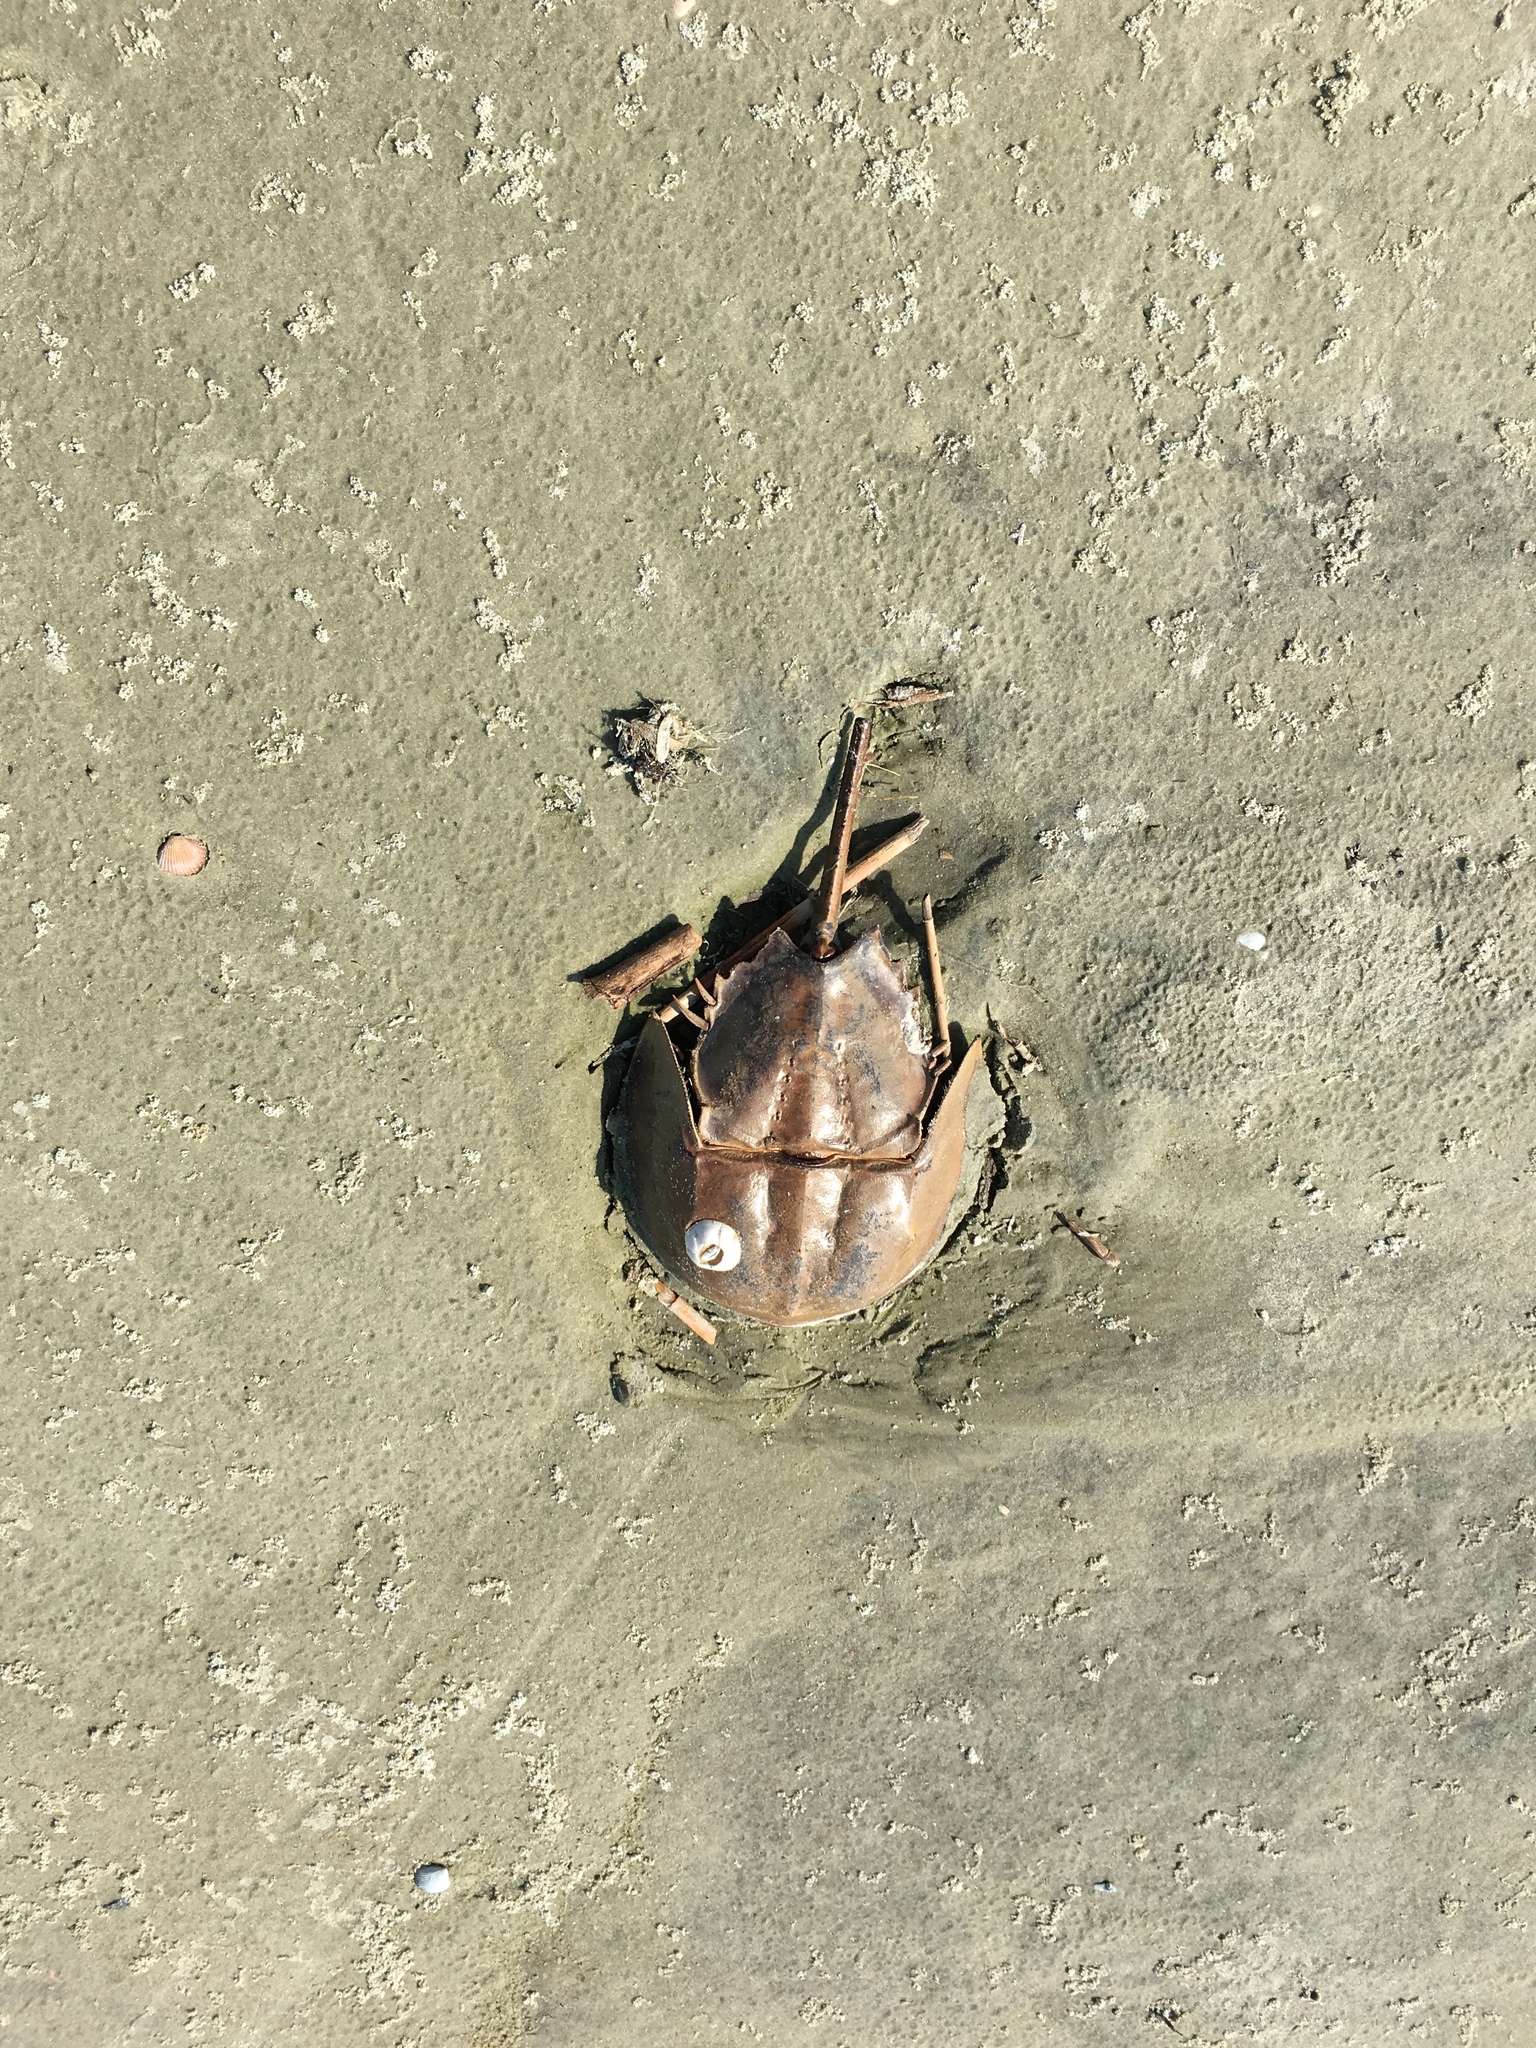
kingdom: Animalia
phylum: Arthropoda
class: Merostomata
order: Xiphosurida
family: Limulidae
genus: Limulus
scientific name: Limulus polyphemus
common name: Horseshoe crab
